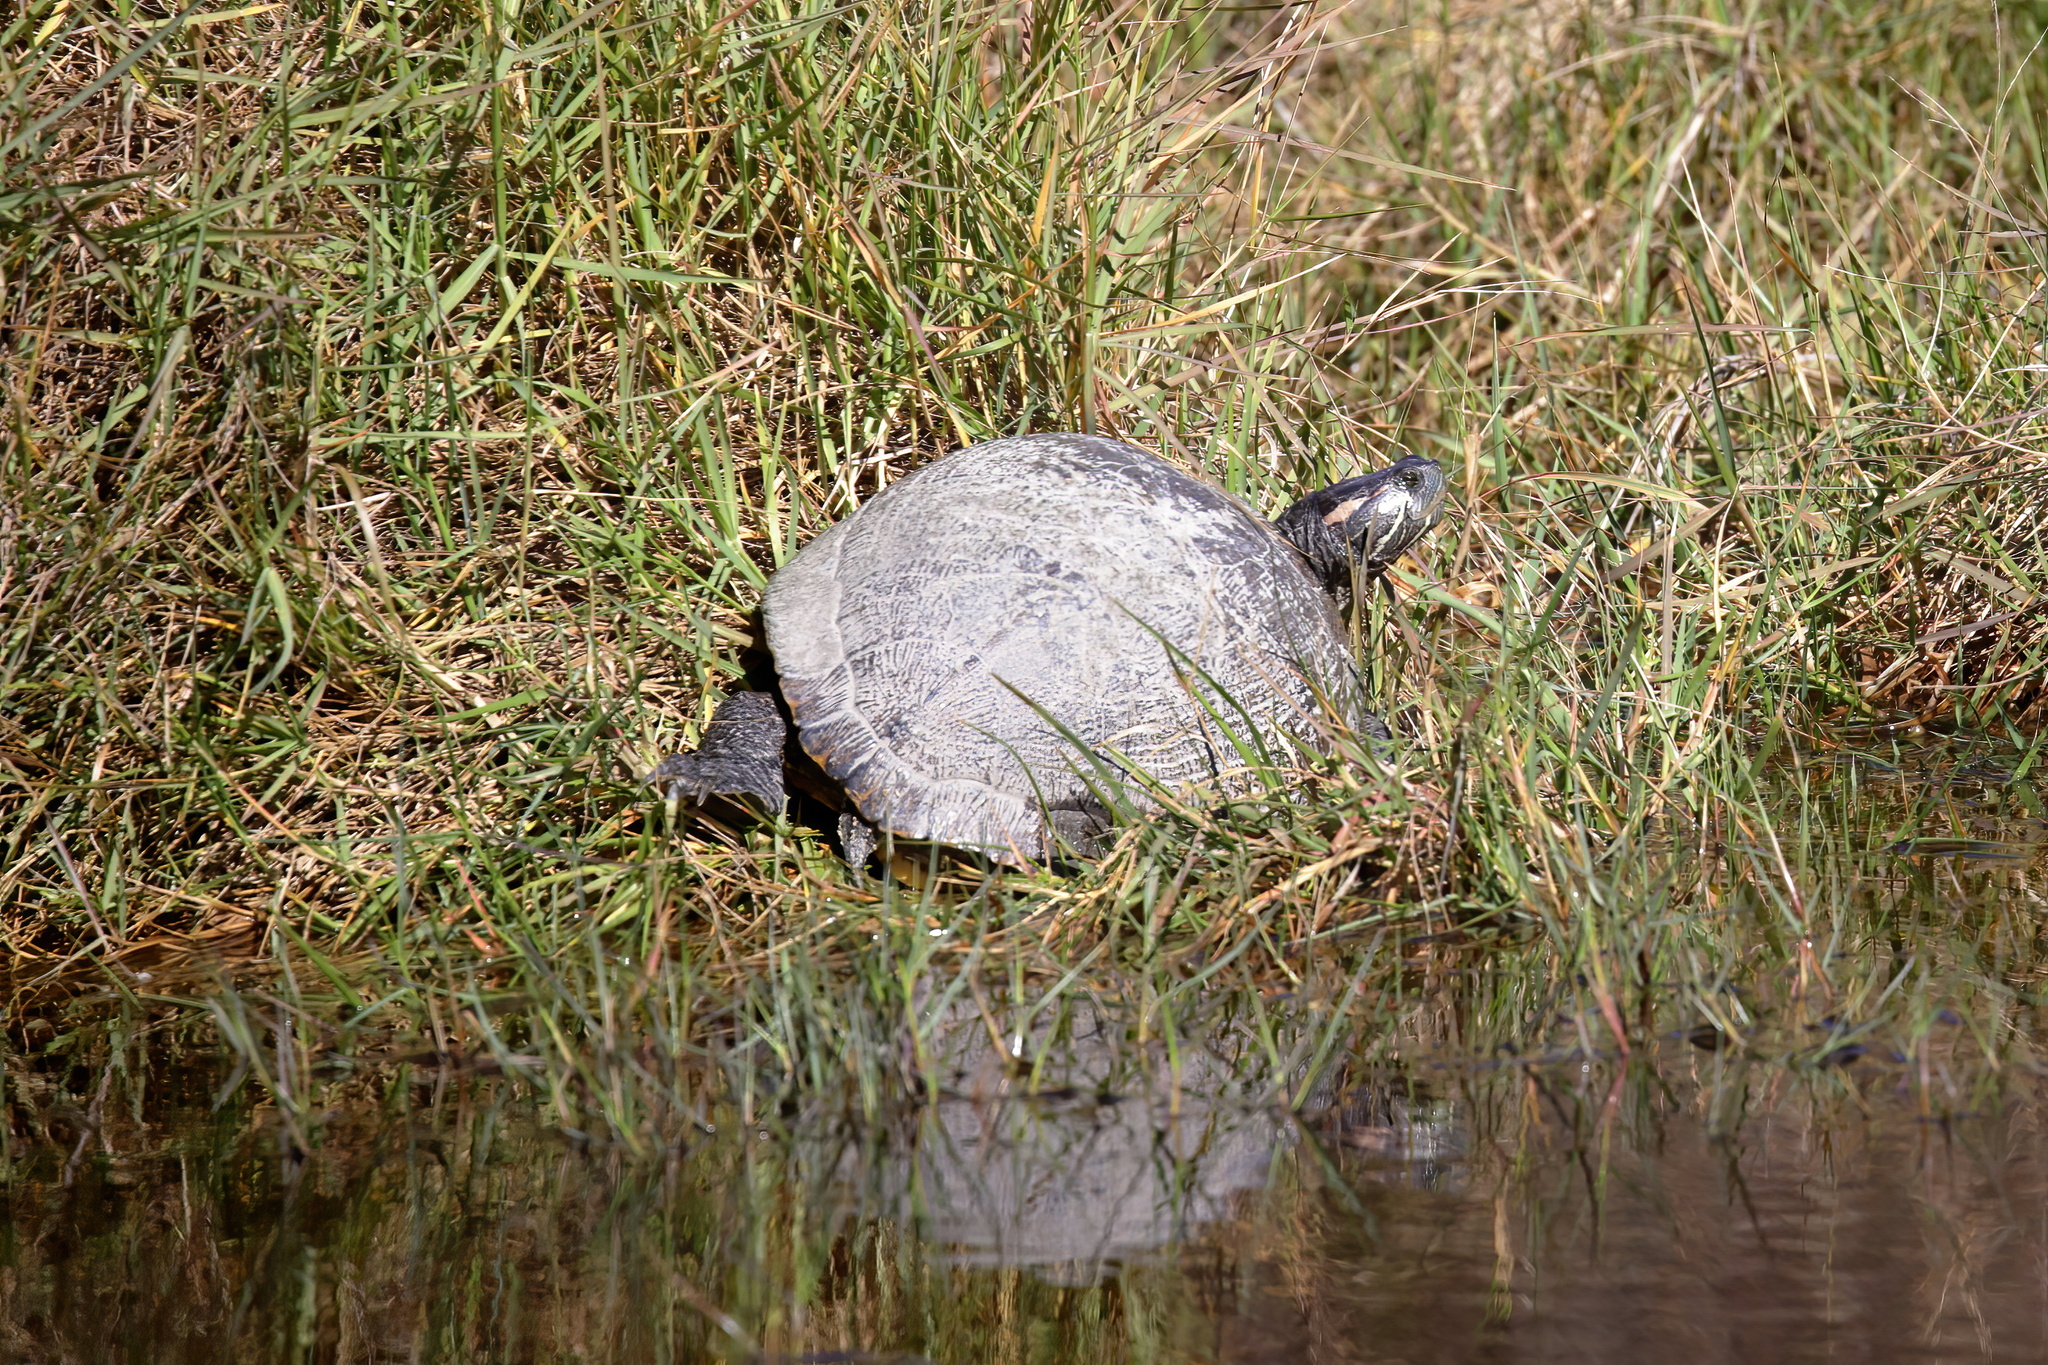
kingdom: Animalia
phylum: Chordata
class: Testudines
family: Emydidae
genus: Trachemys
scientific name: Trachemys scripta
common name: Slider
